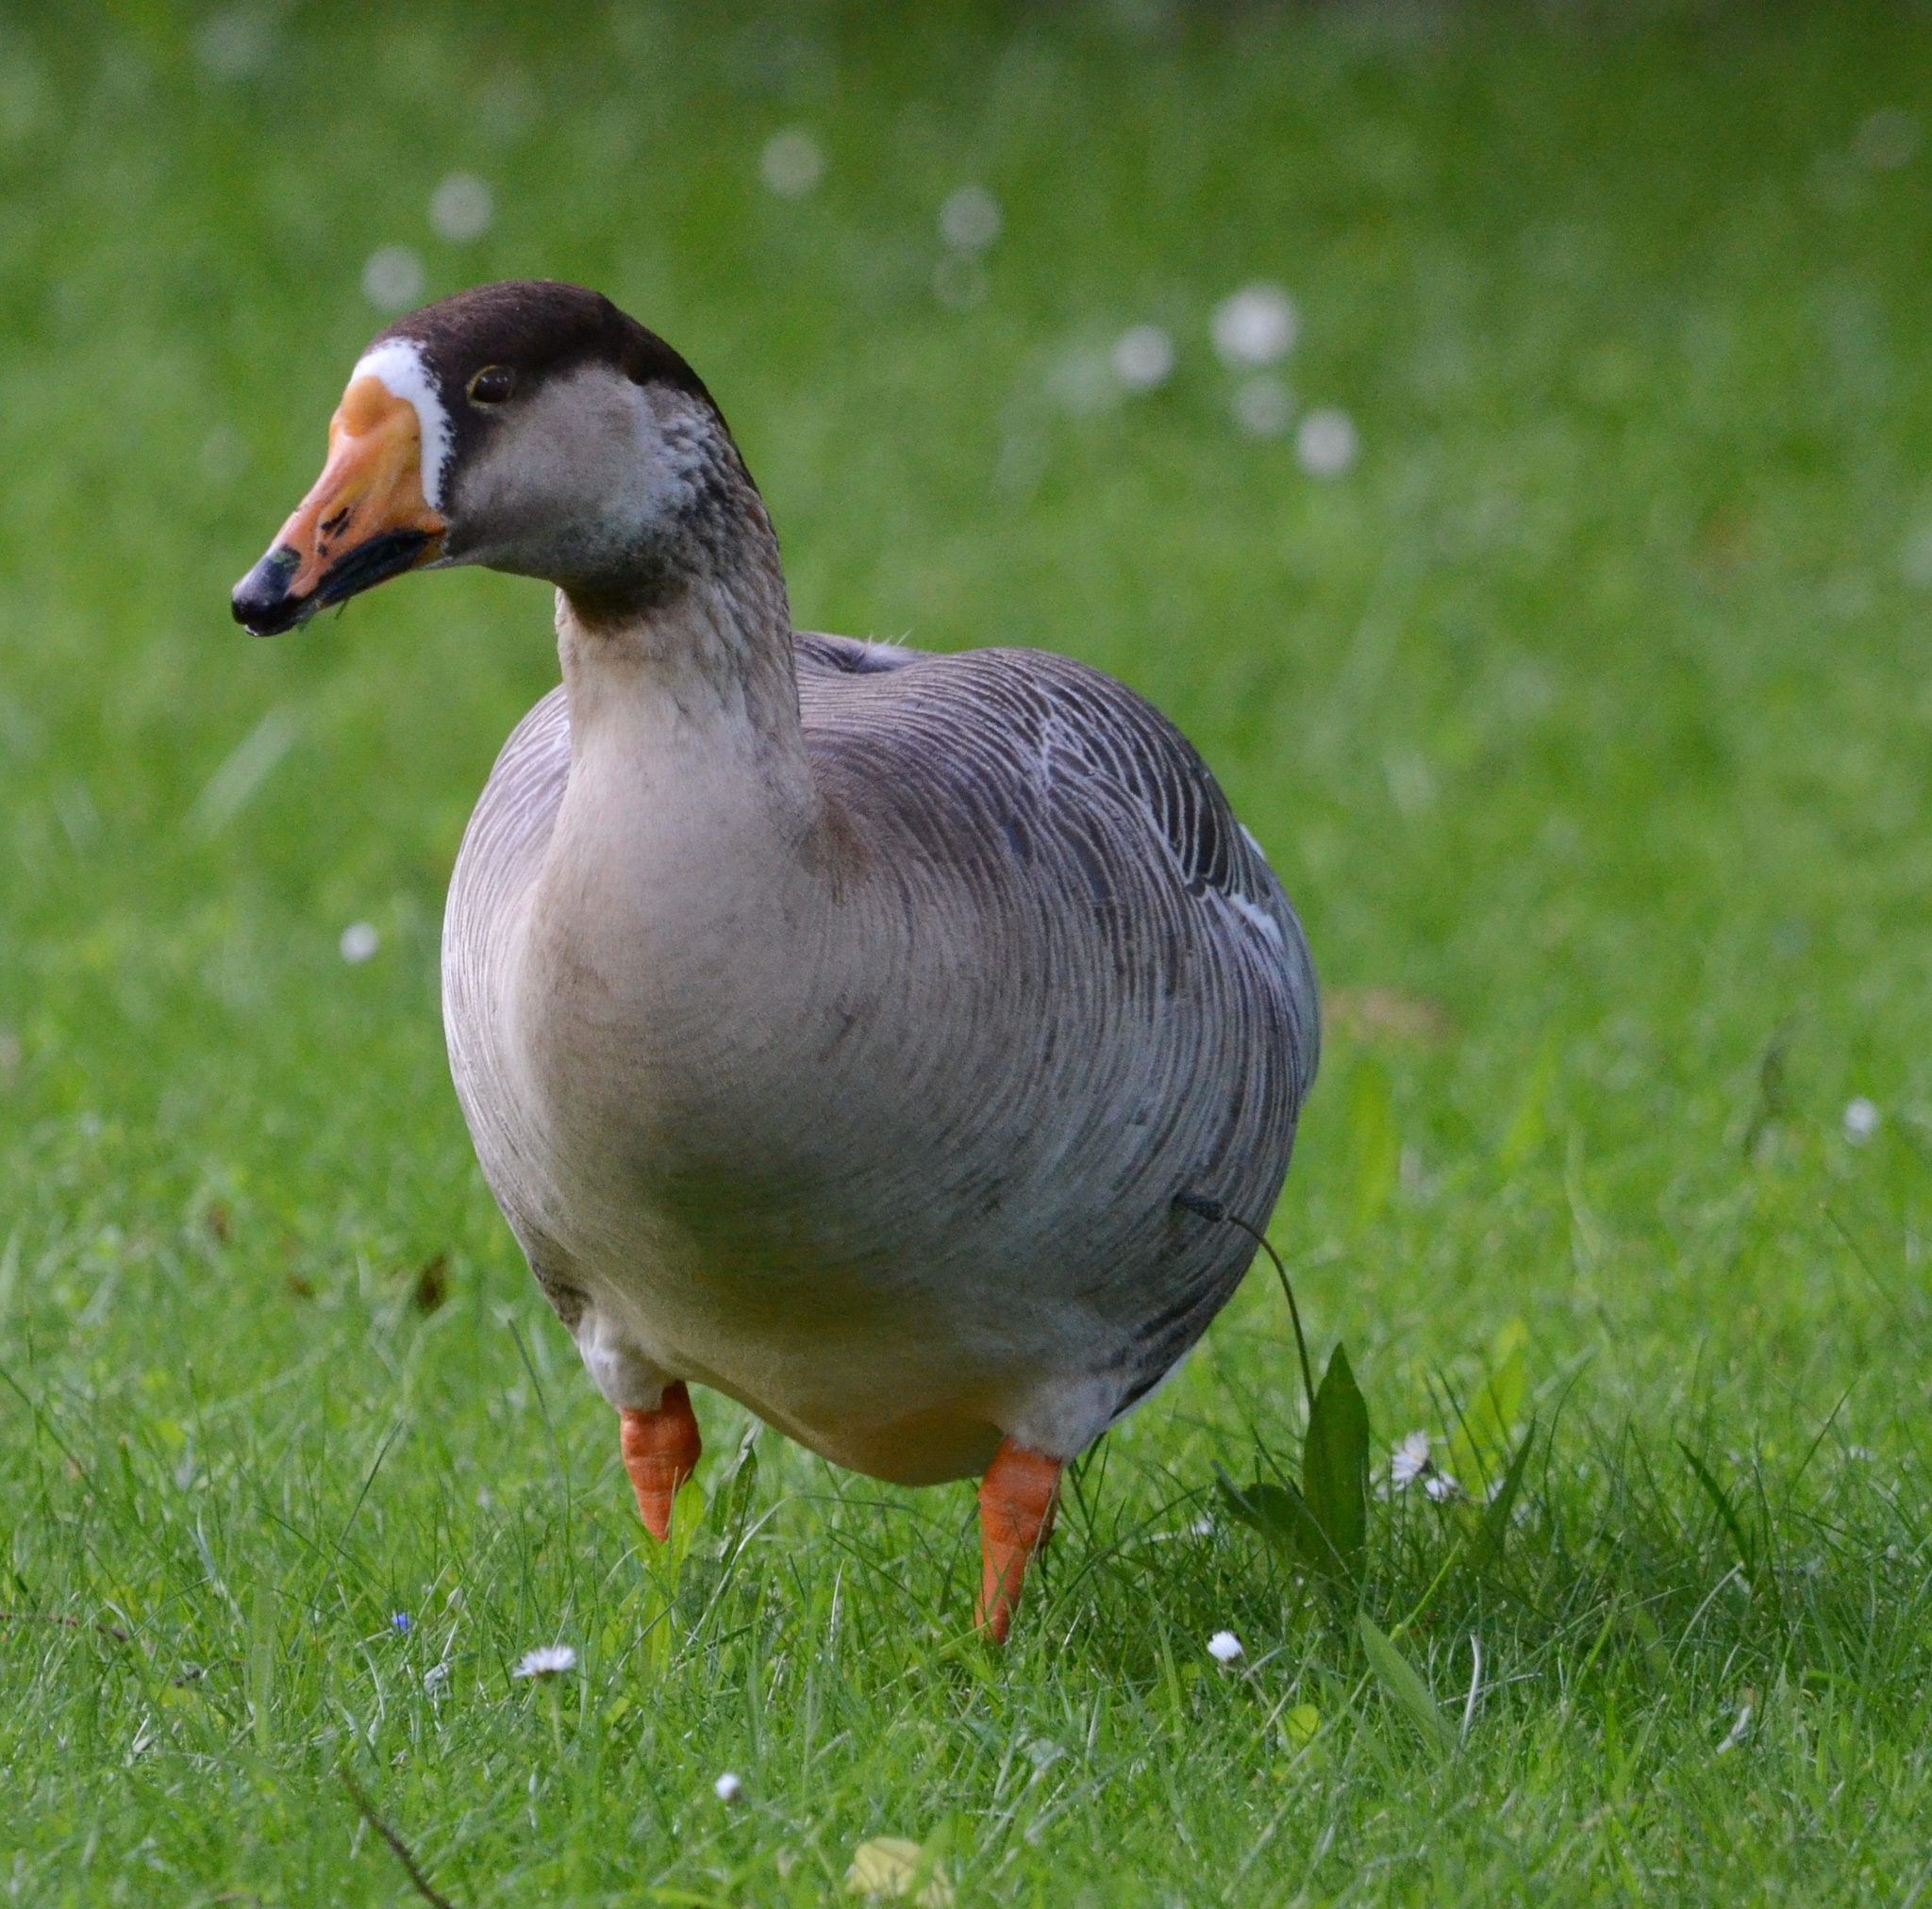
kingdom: Animalia
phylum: Chordata
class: Aves
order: Anseriformes
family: Anatidae
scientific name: Anatidae
